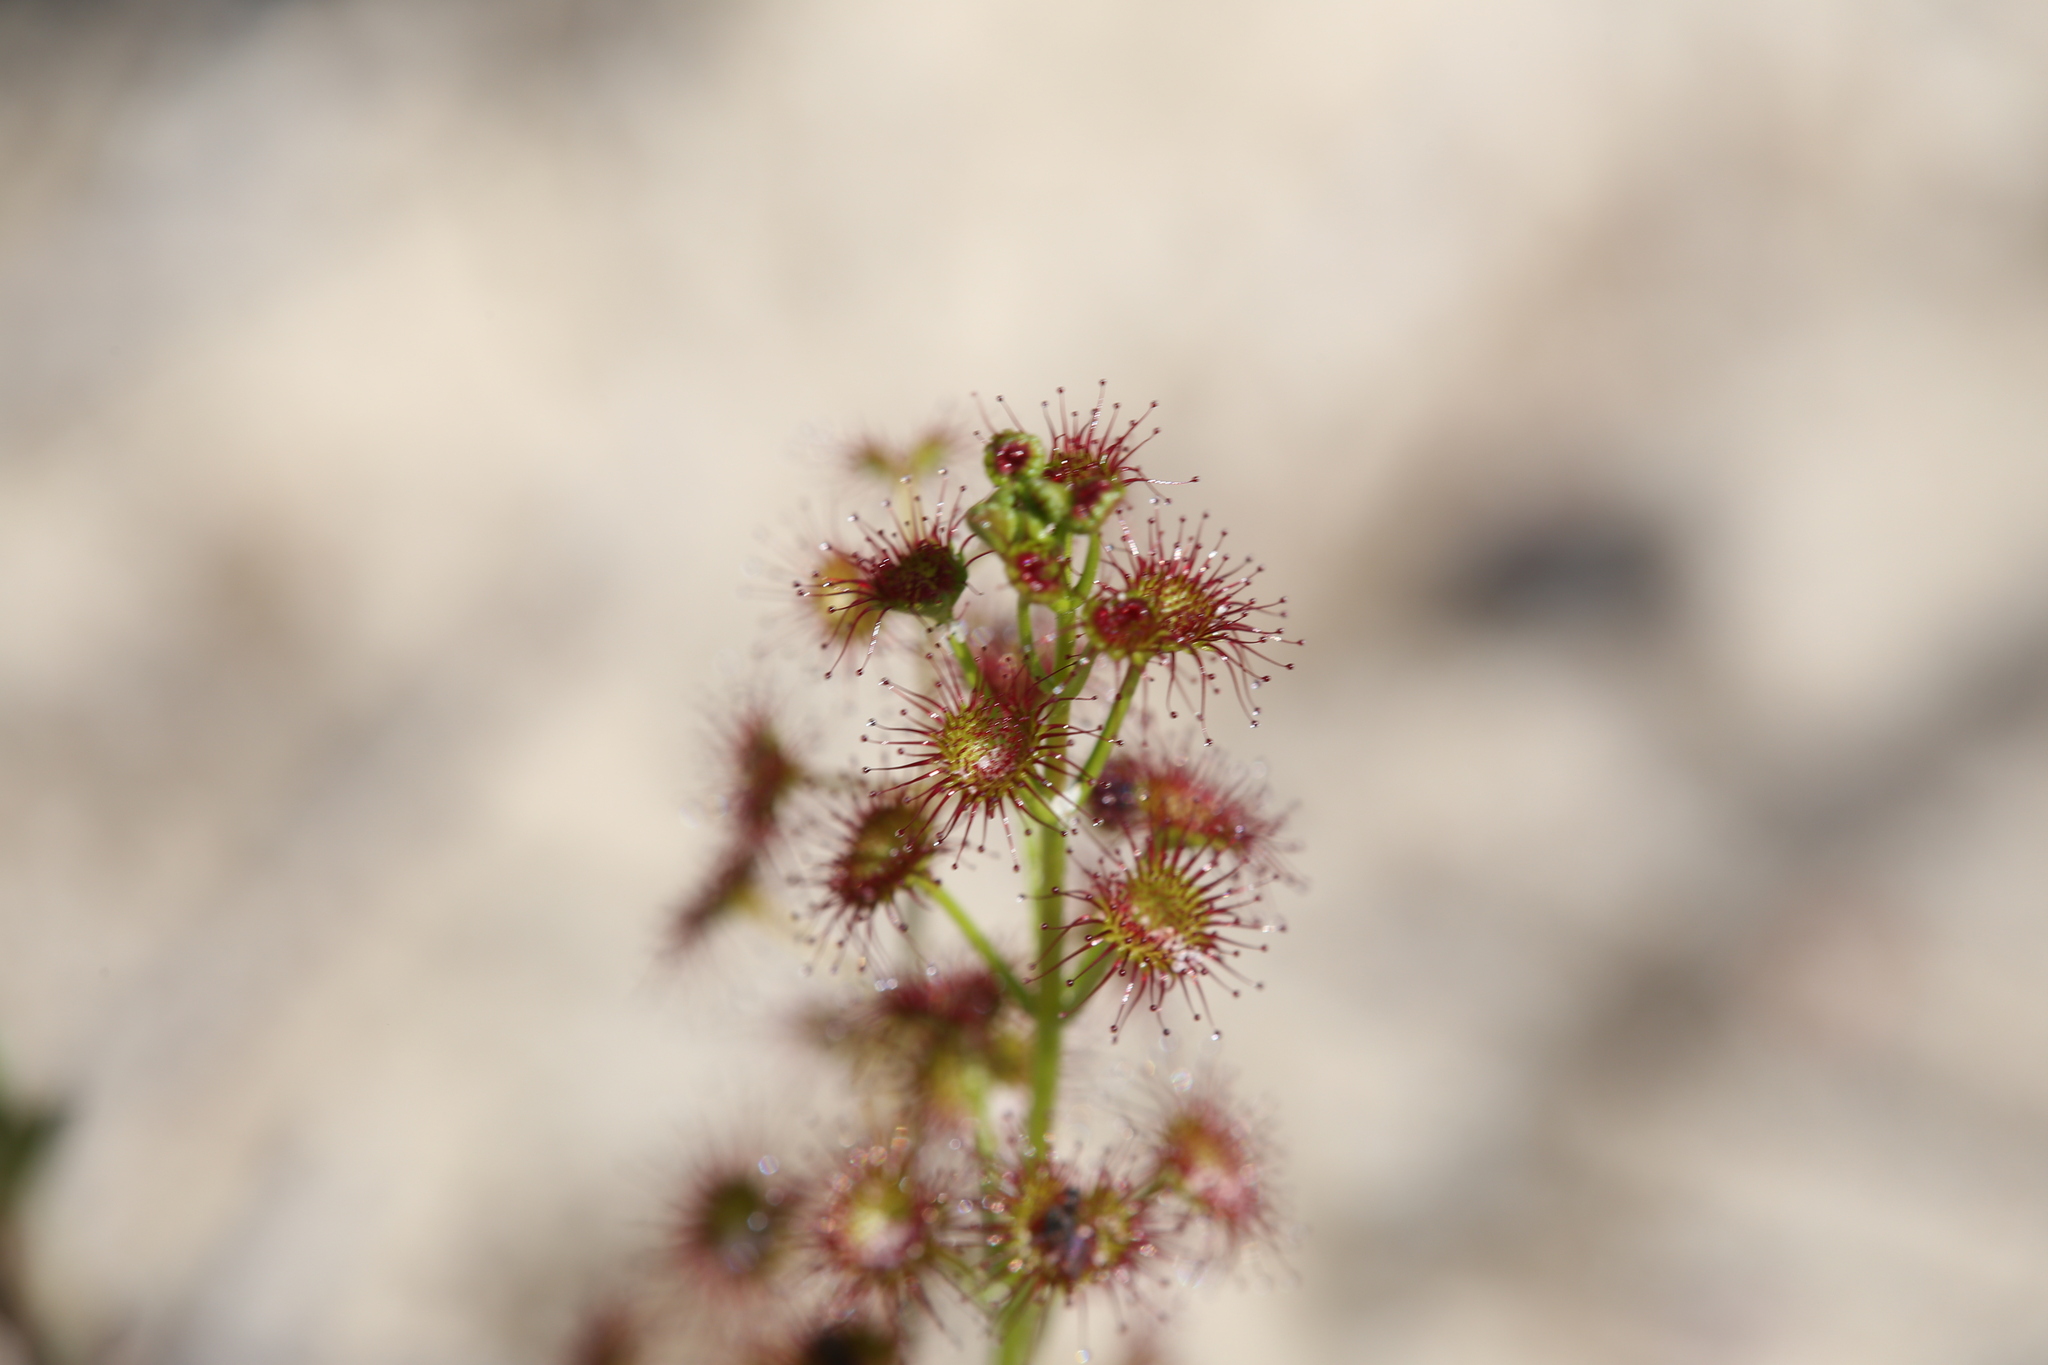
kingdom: Plantae
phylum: Tracheophyta
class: Magnoliopsida
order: Caryophyllales
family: Droseraceae
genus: Drosera
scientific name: Drosera stolonifera
